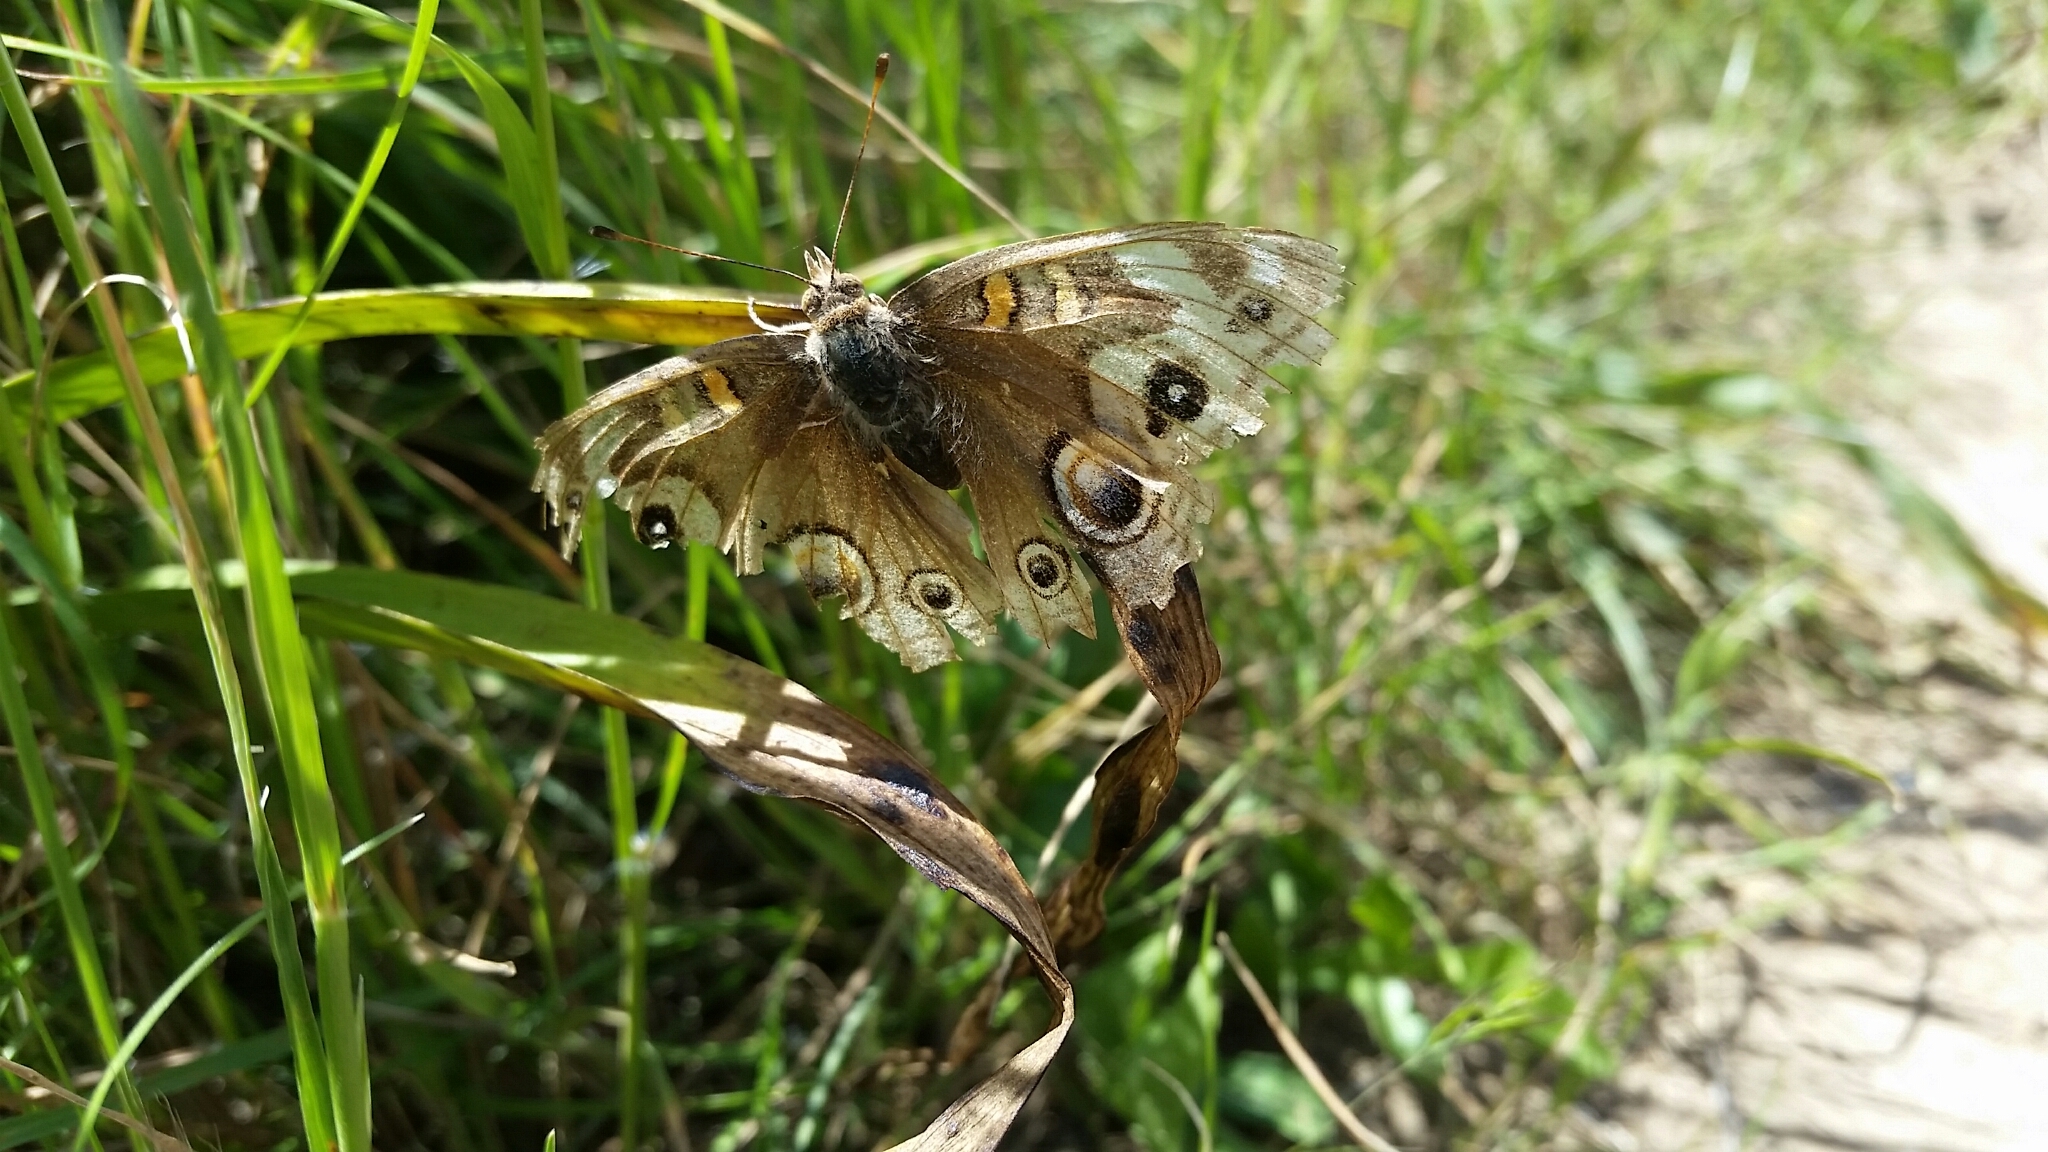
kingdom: Animalia
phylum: Arthropoda
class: Insecta
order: Lepidoptera
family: Nymphalidae
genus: Junonia
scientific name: Junonia grisea
